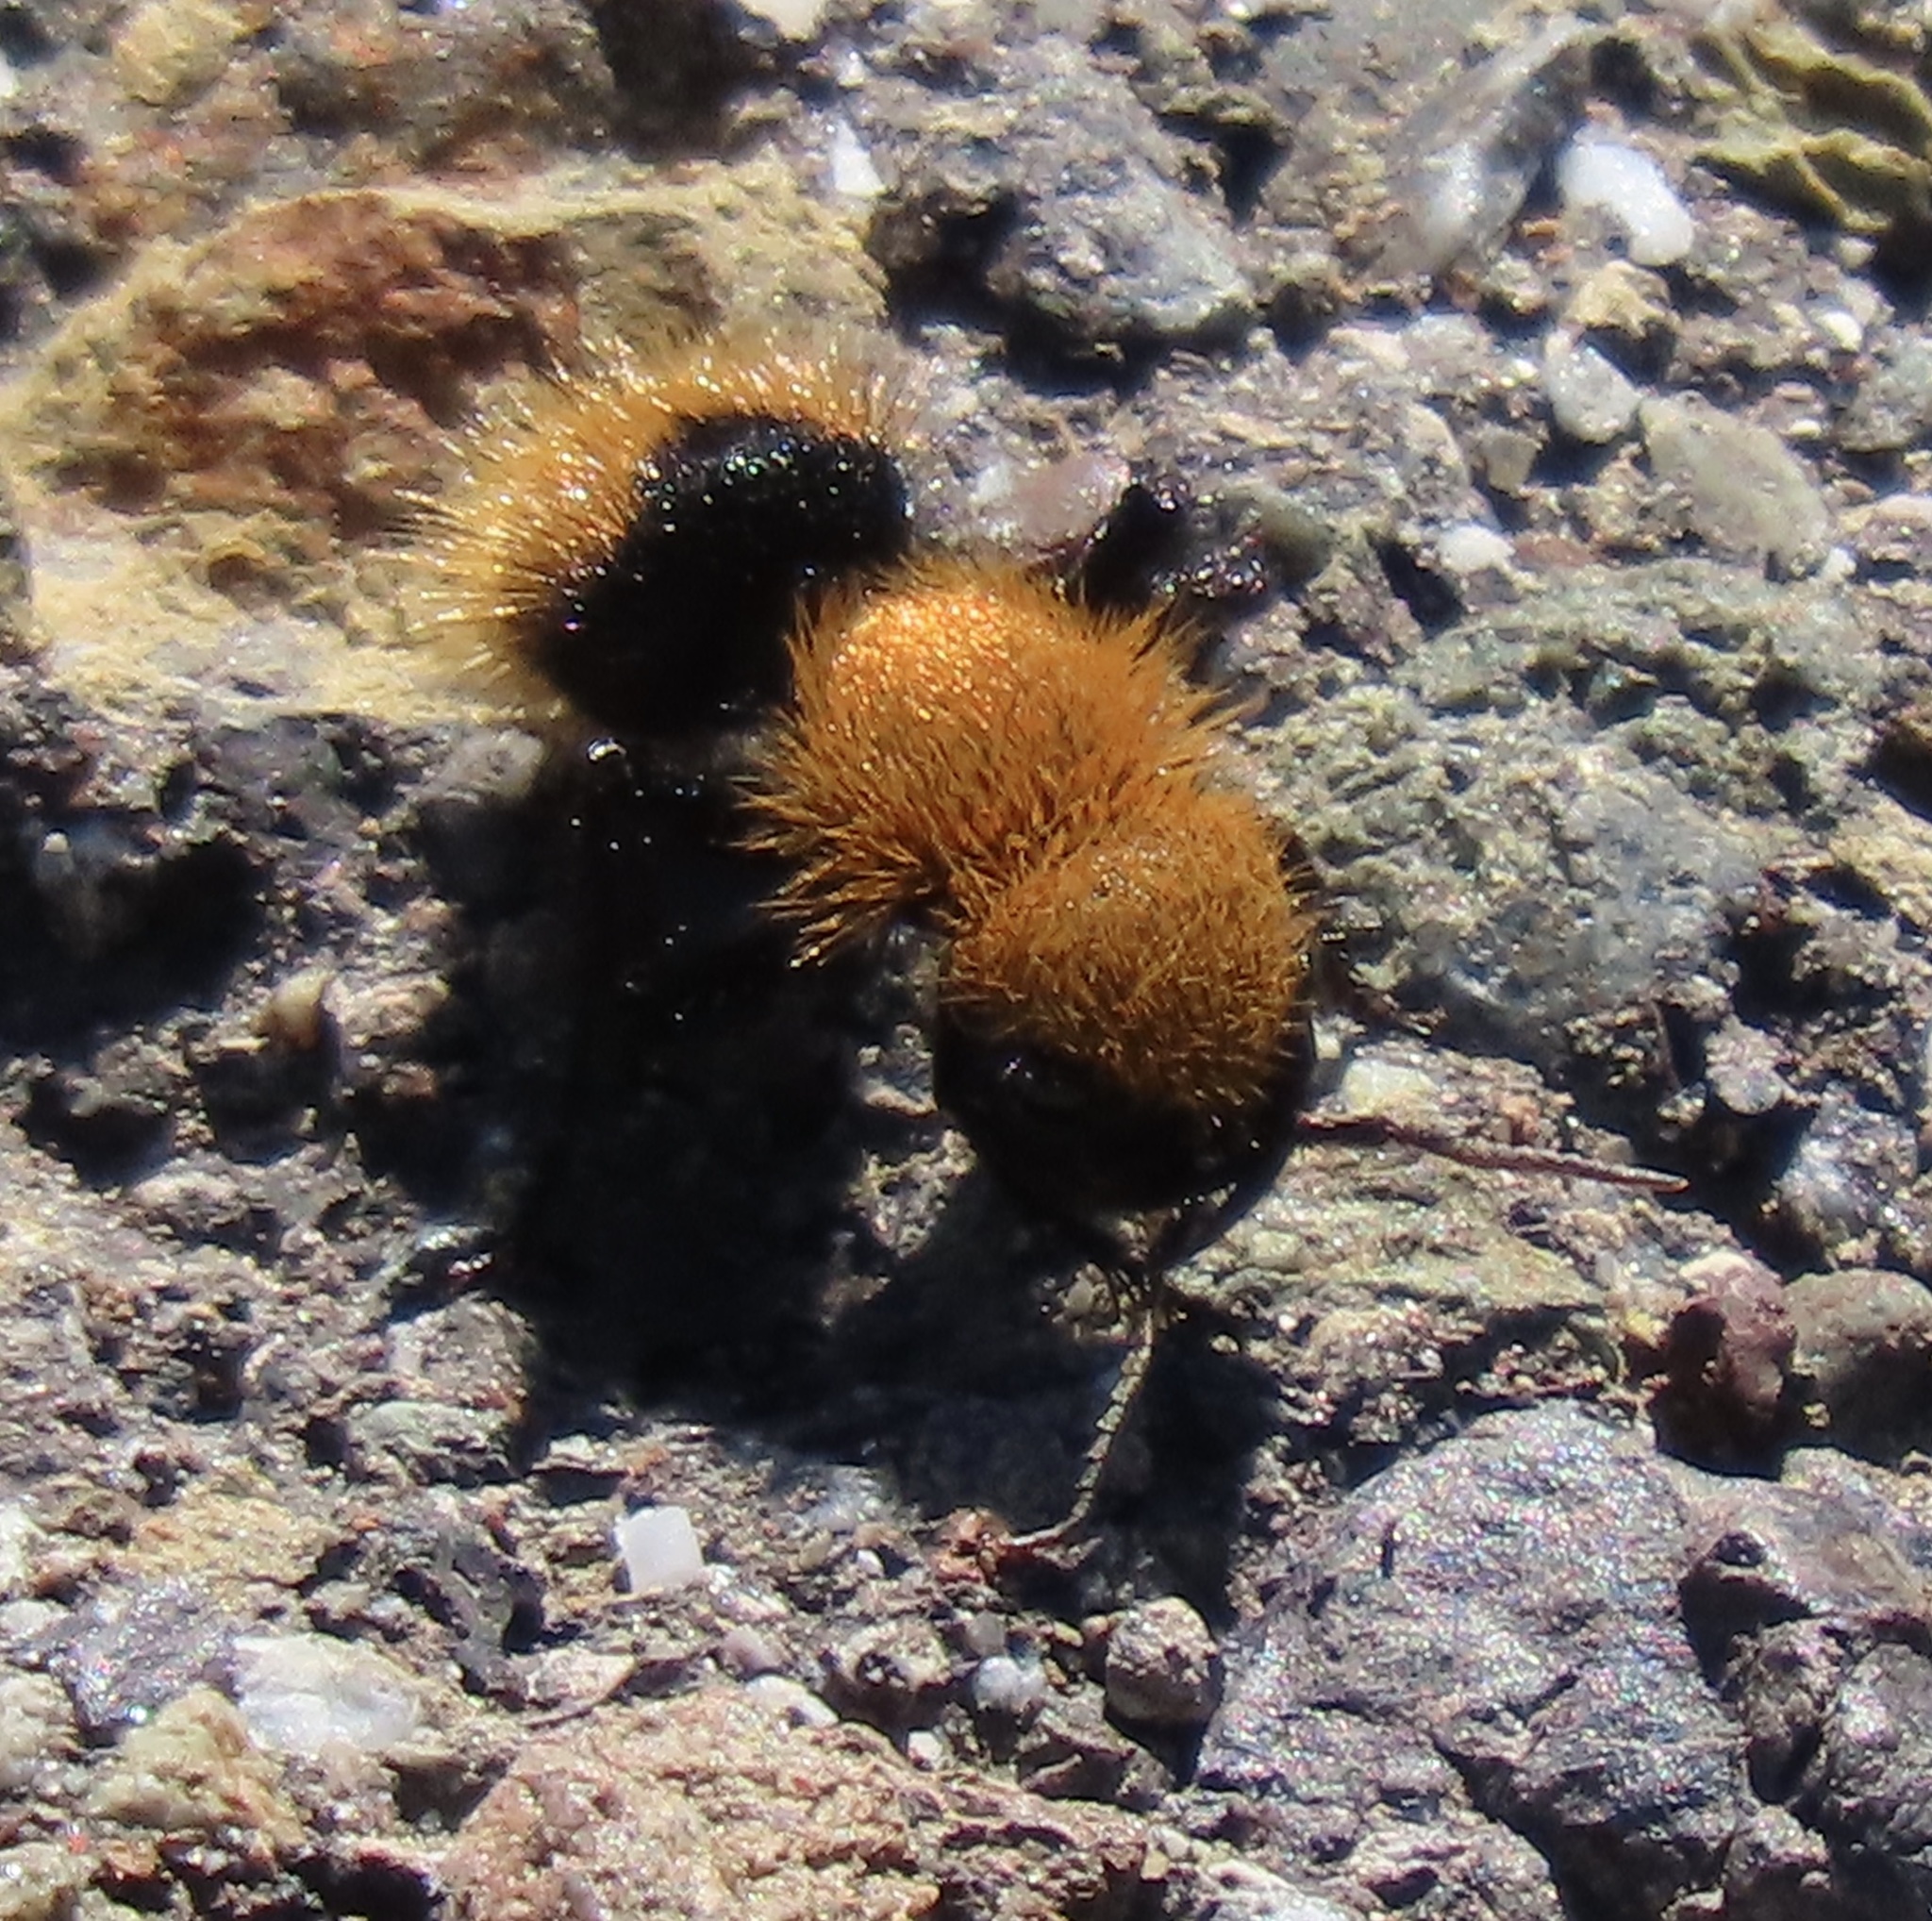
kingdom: Animalia
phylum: Arthropoda
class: Insecta
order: Hymenoptera
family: Mutillidae
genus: Dasymutilla
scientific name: Dasymutilla
